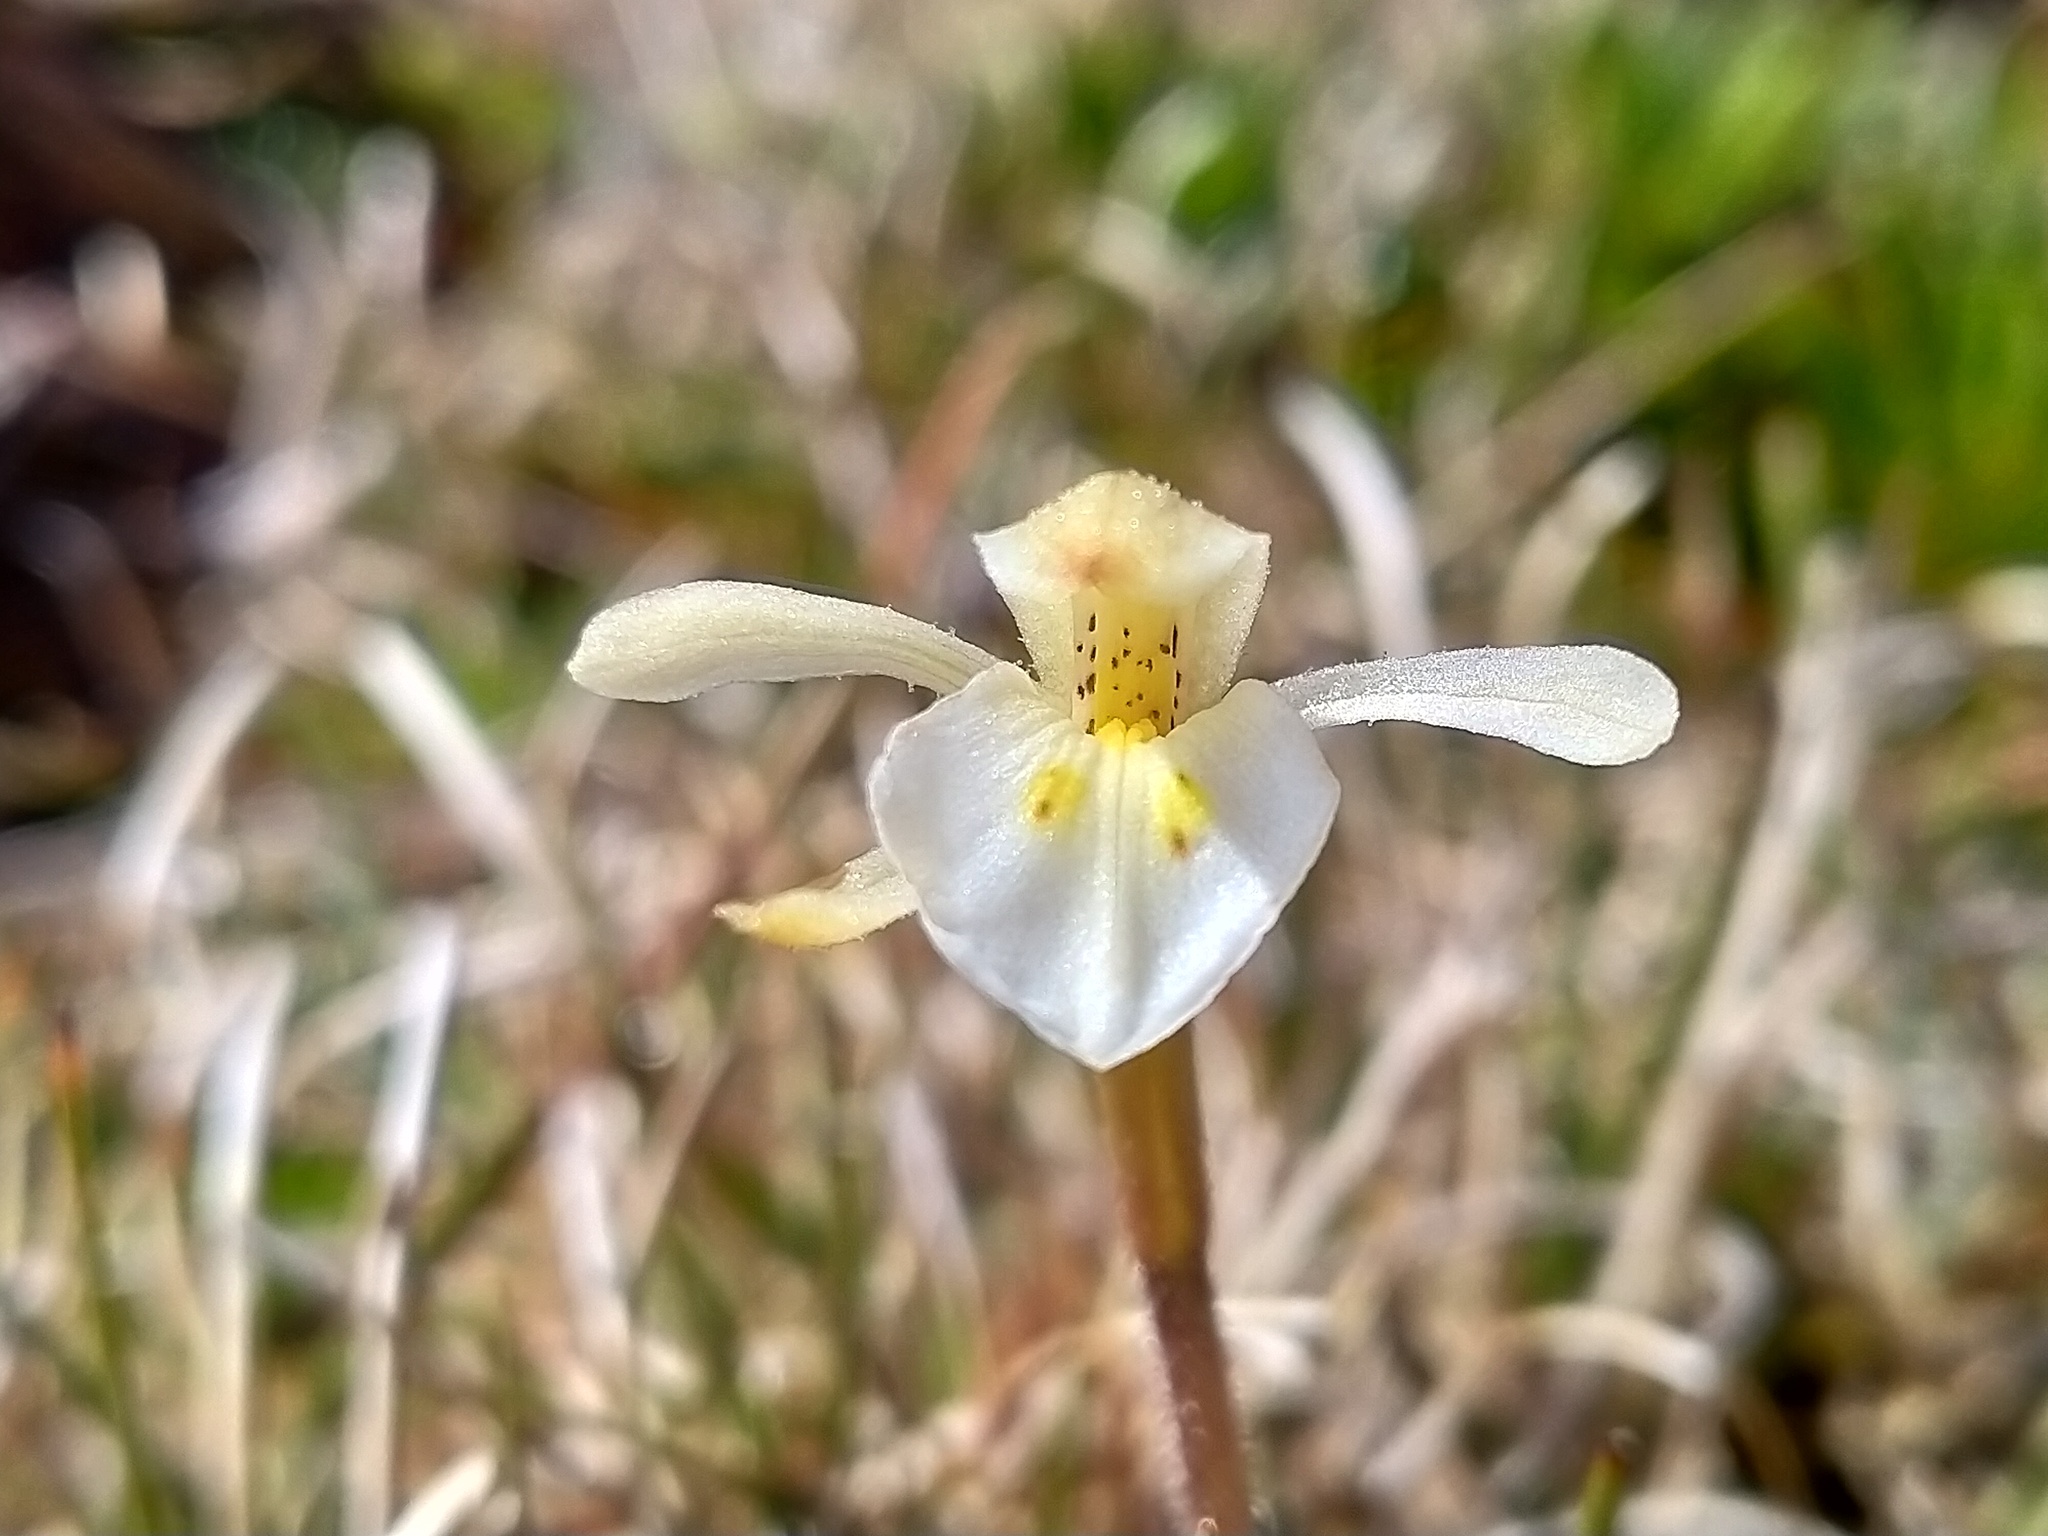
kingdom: Plantae
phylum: Tracheophyta
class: Liliopsida
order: Asparagales
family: Orchidaceae
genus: Aporostylis
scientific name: Aporostylis bifolia
